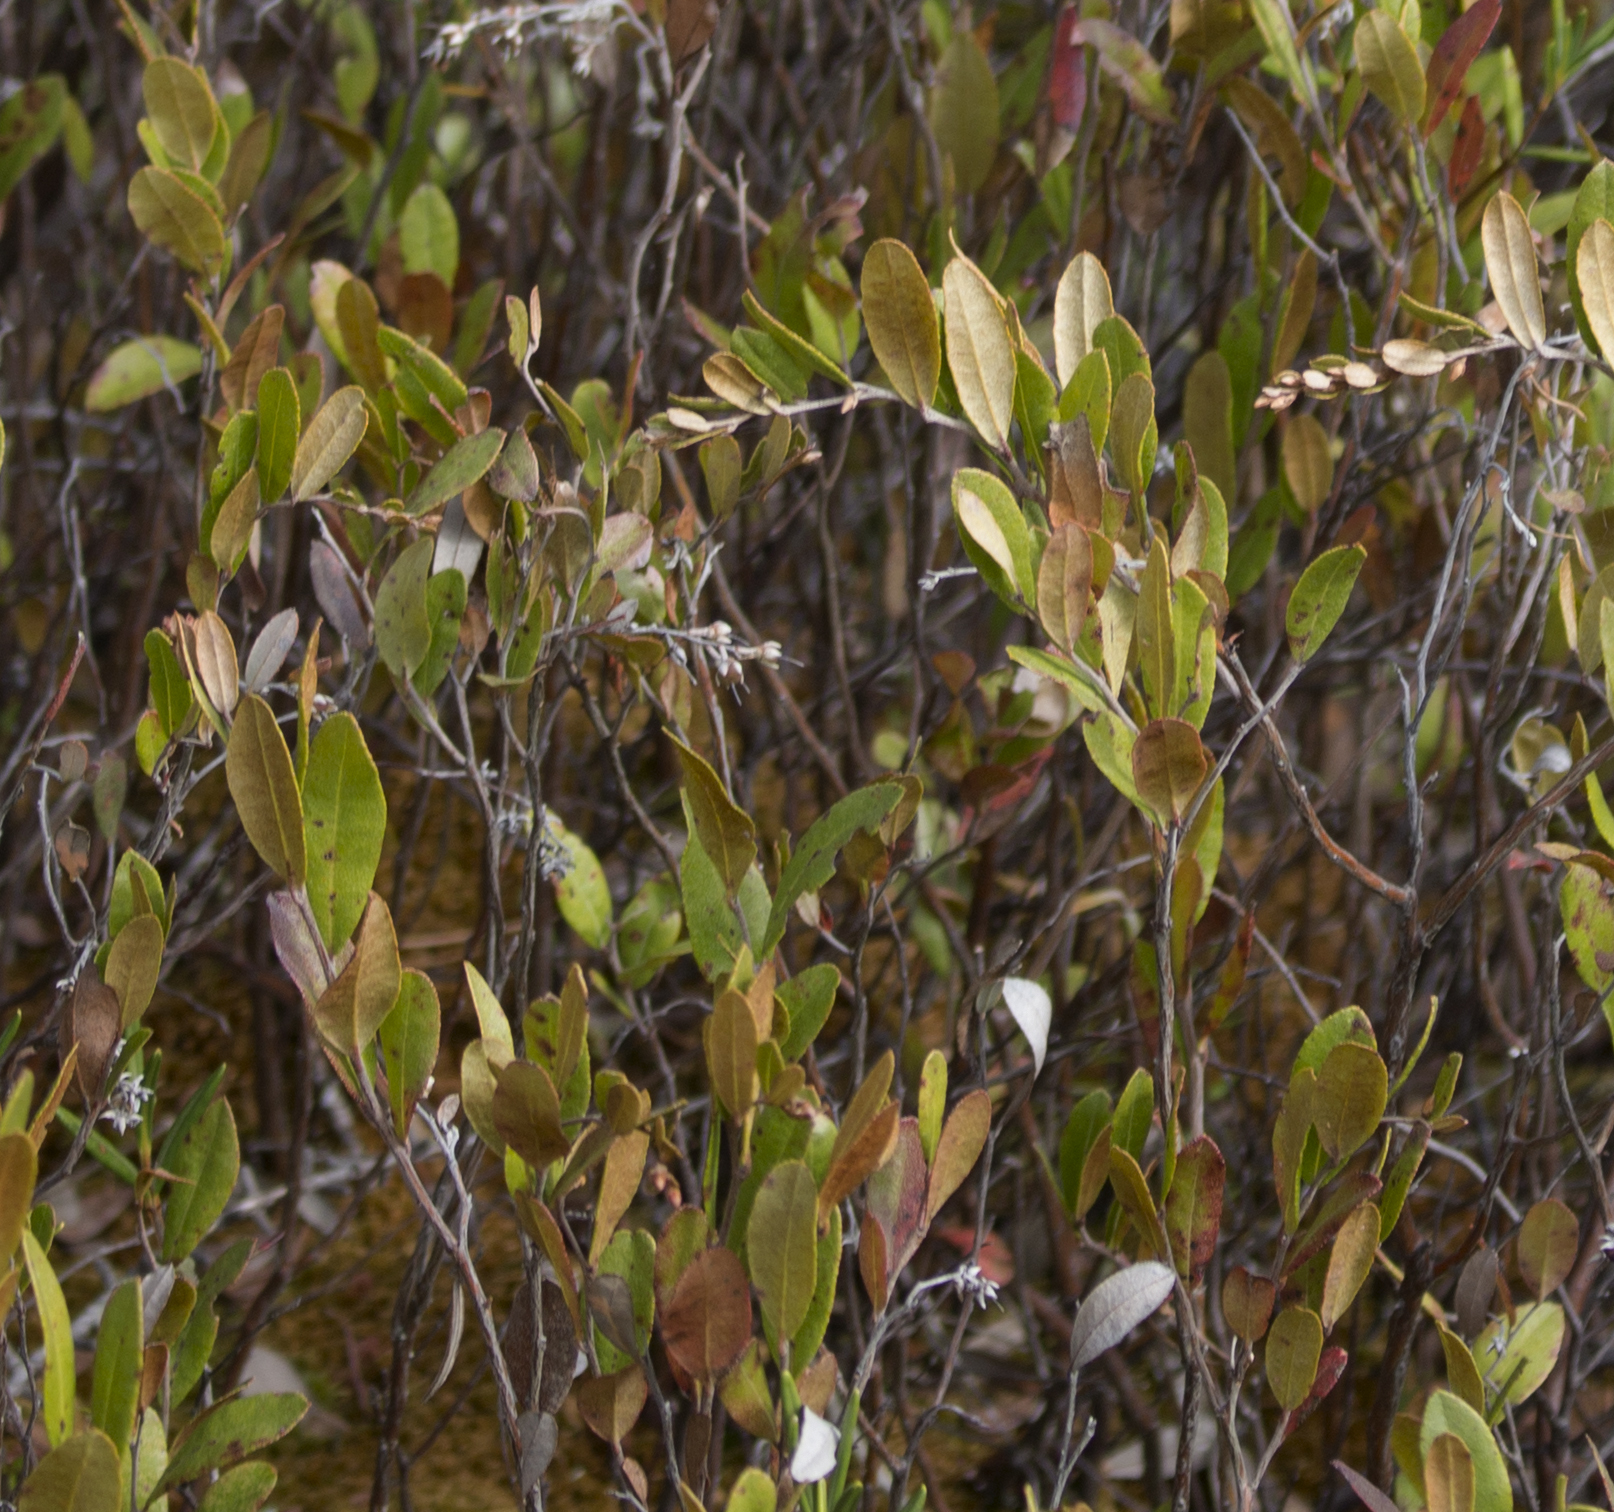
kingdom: Plantae
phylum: Tracheophyta
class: Magnoliopsida
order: Ericales
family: Ericaceae
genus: Chamaedaphne
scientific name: Chamaedaphne calyculata
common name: Leatherleaf
